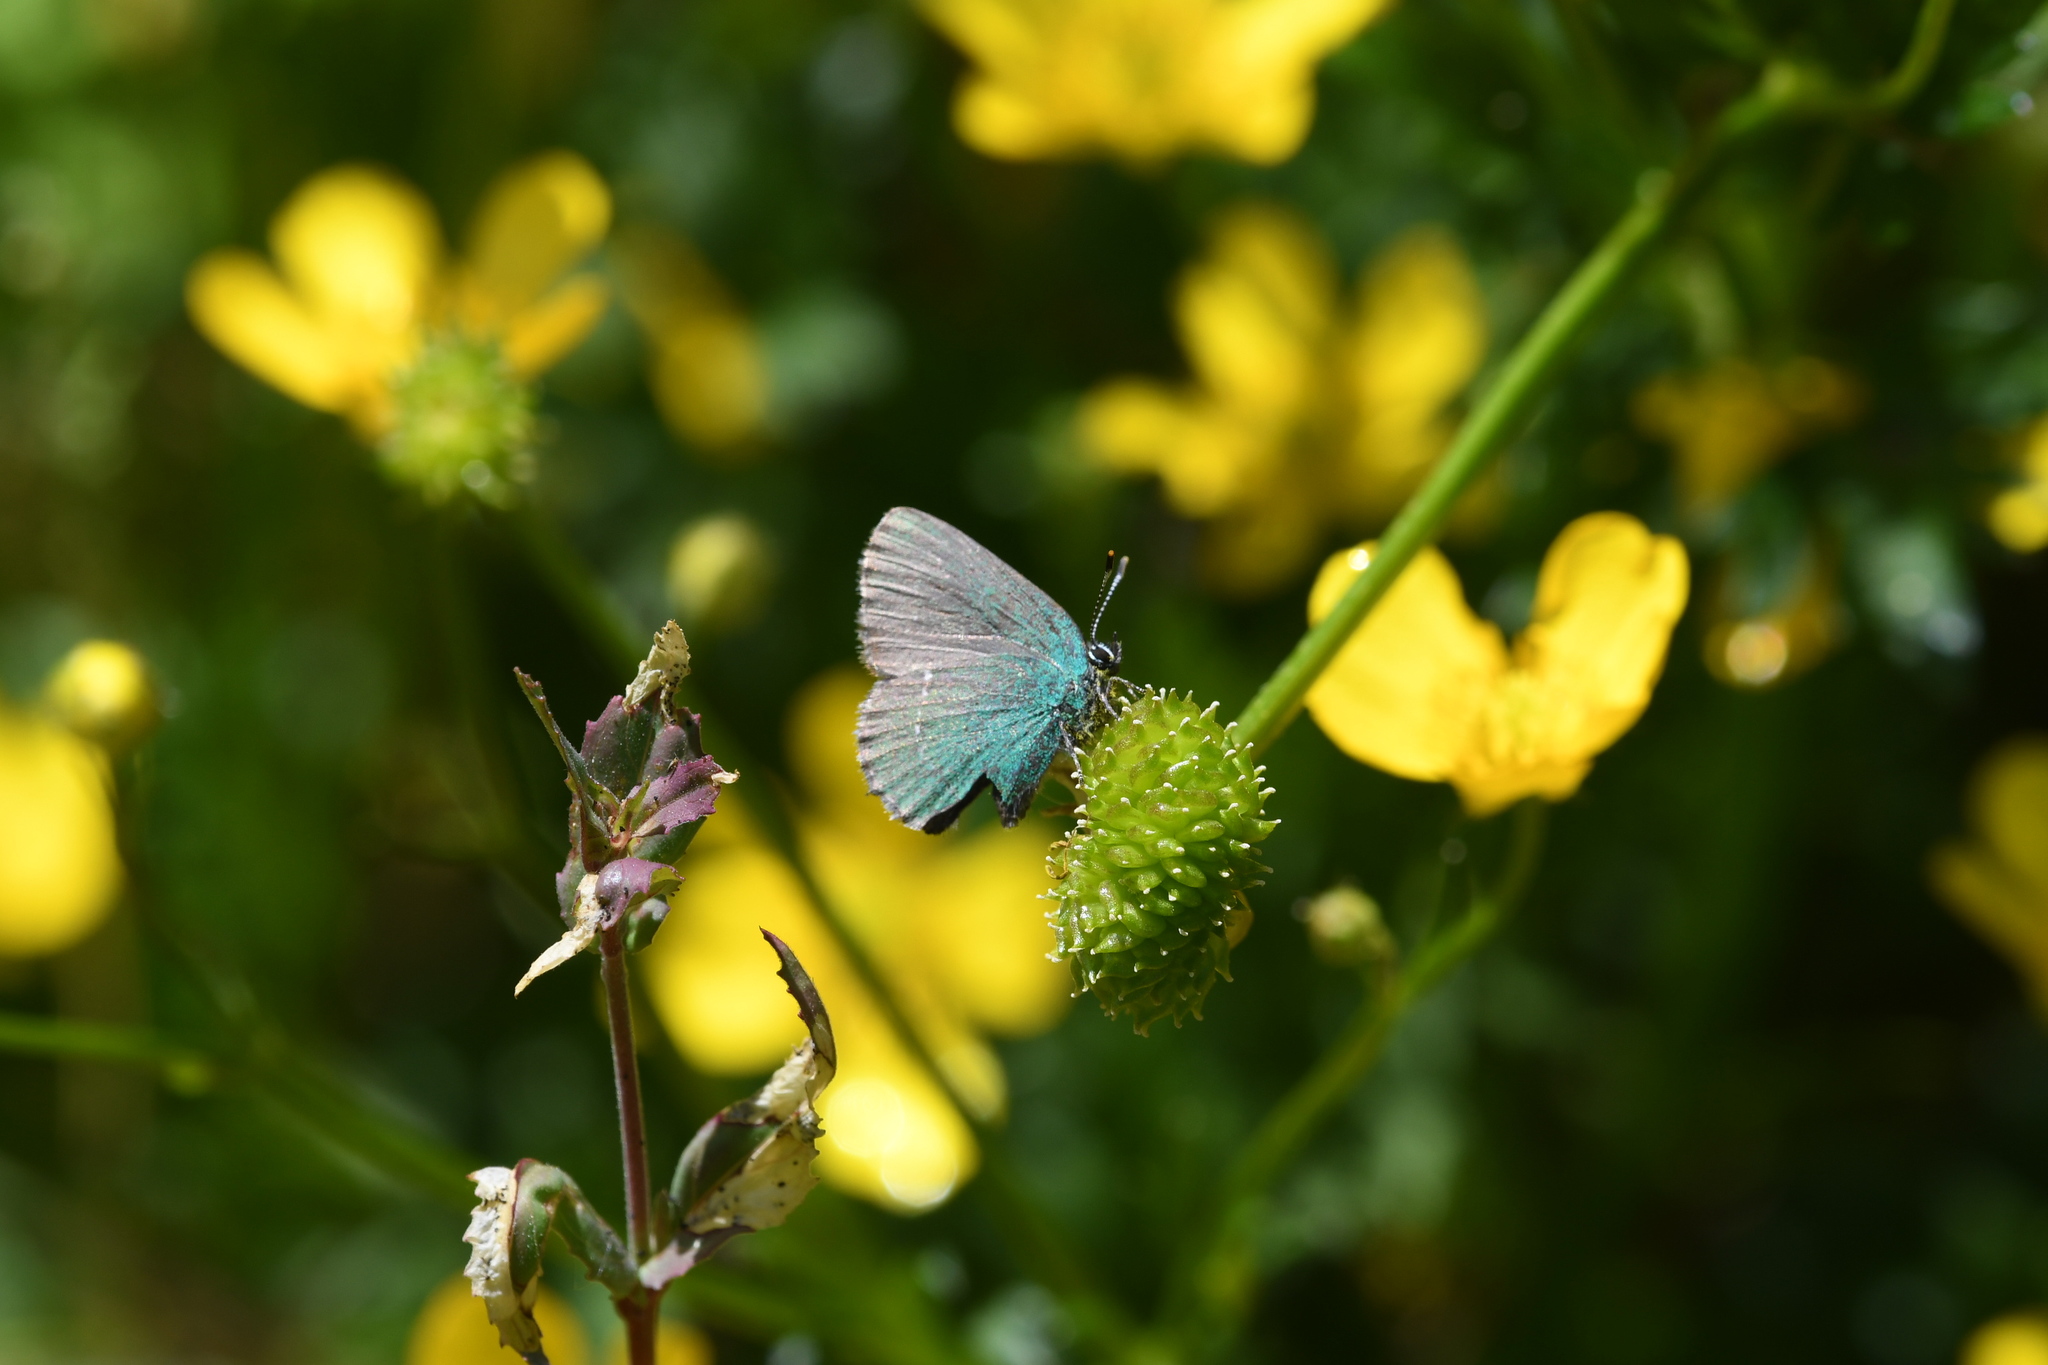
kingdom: Animalia
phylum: Arthropoda
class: Insecta
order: Lepidoptera
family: Lycaenidae
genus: Callophrys
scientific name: Callophrys rubi
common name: Green hairstreak
